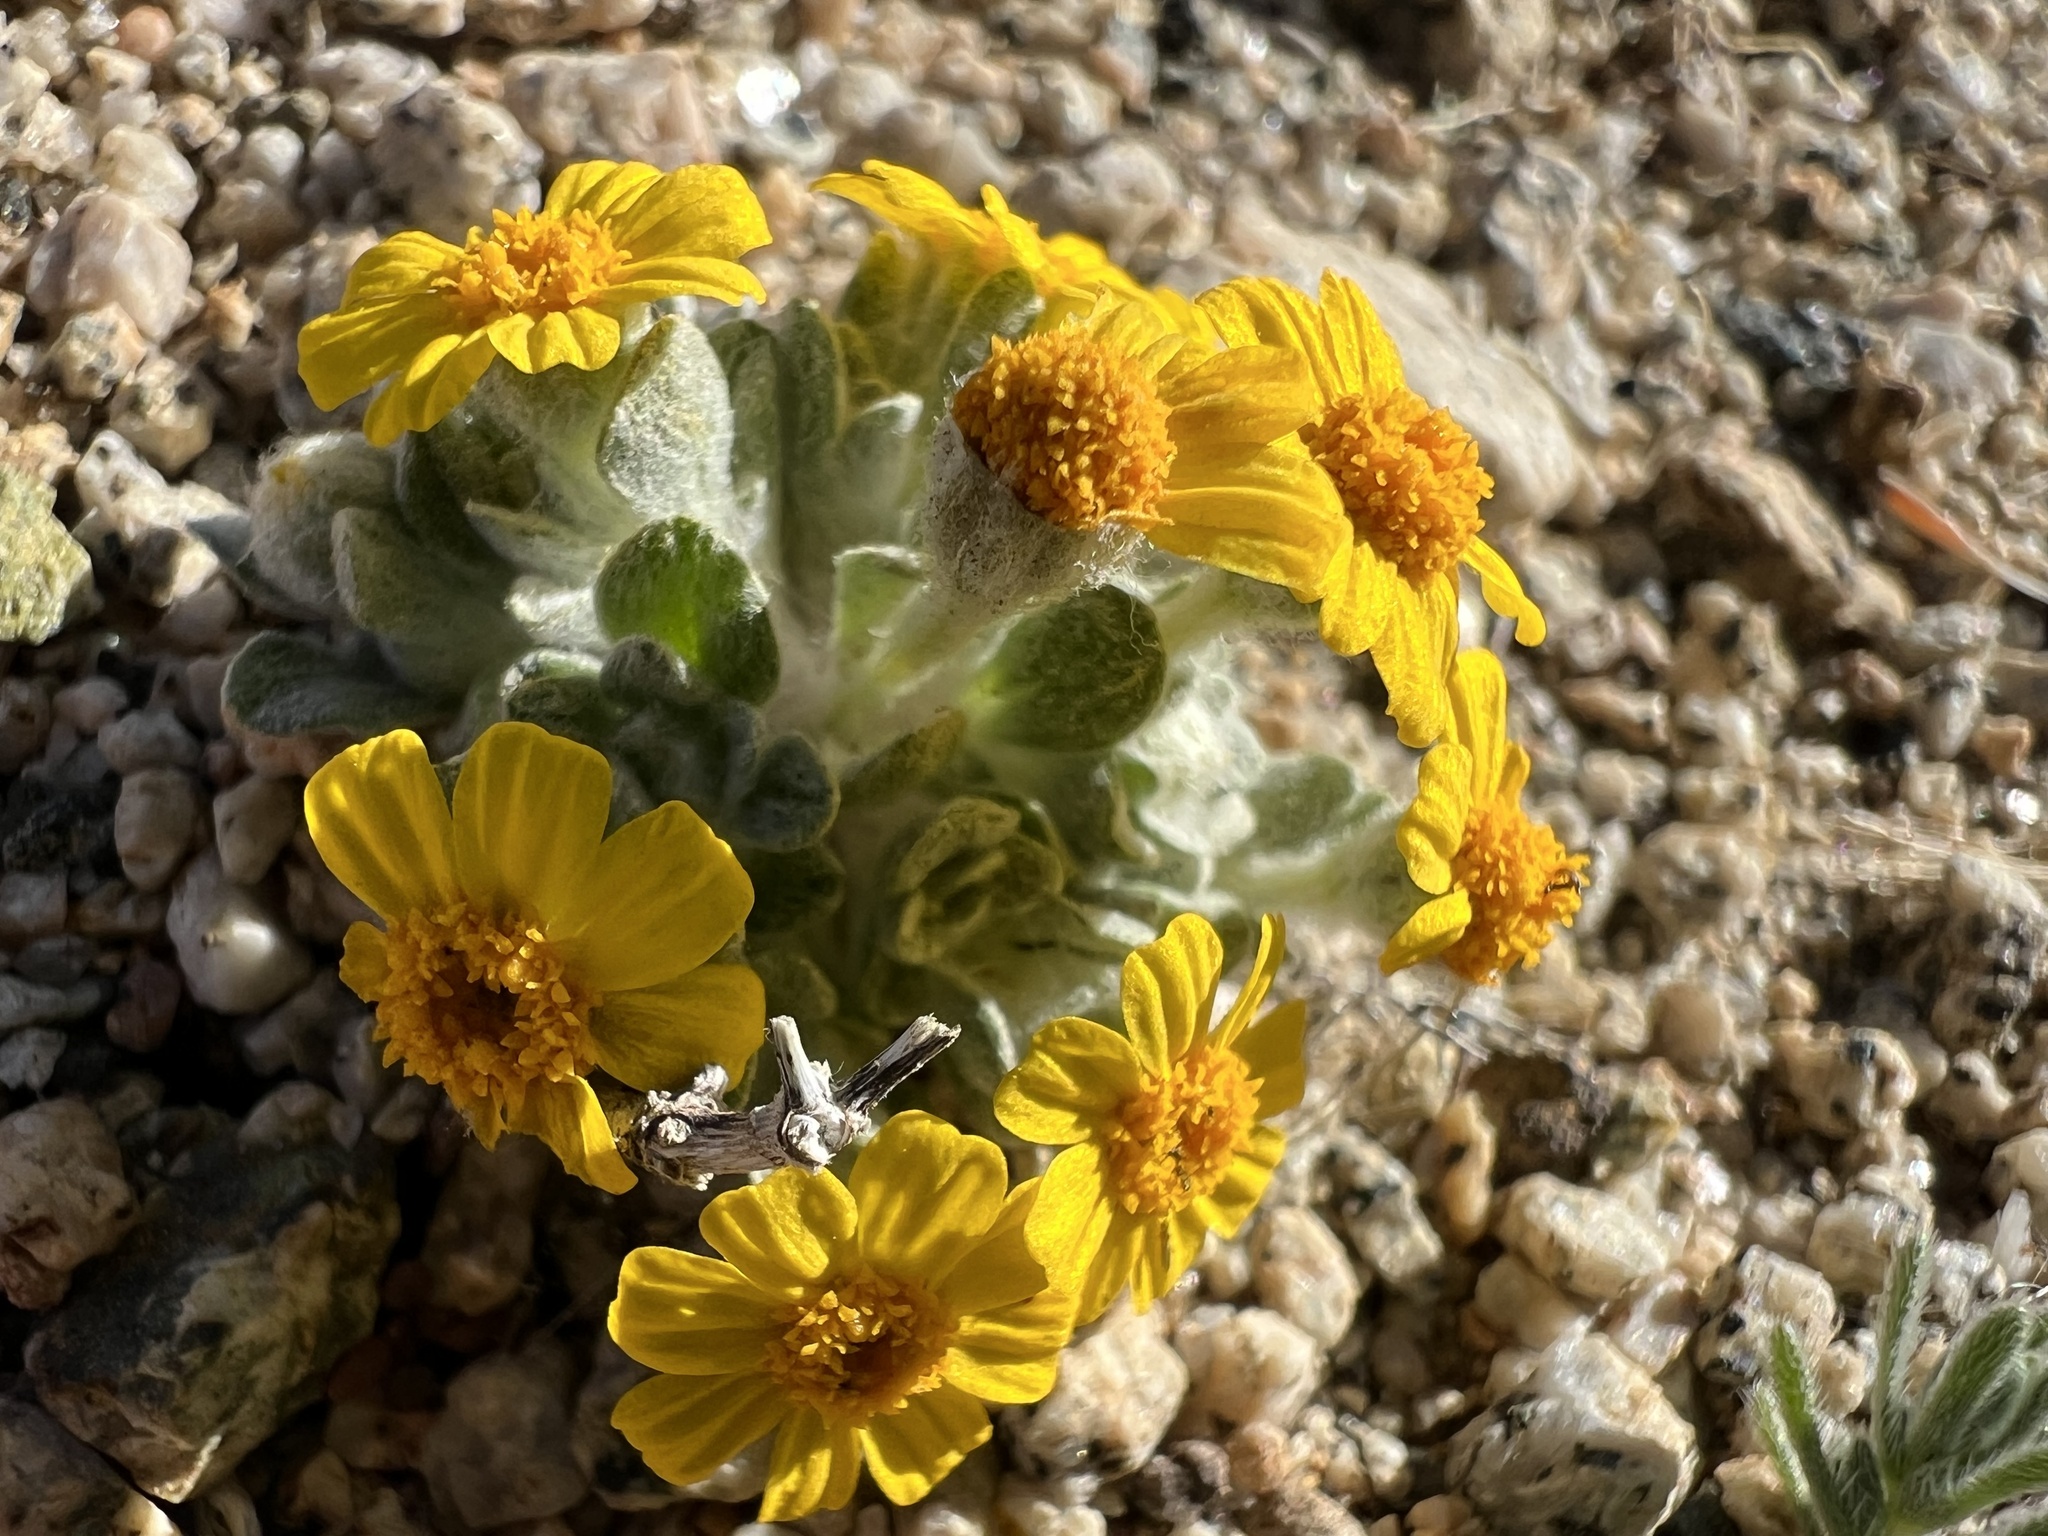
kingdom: Plantae
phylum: Tracheophyta
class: Magnoliopsida
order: Asterales
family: Asteraceae
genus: Eriophyllum
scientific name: Eriophyllum wallacei
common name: Wallace's woolly daisy
